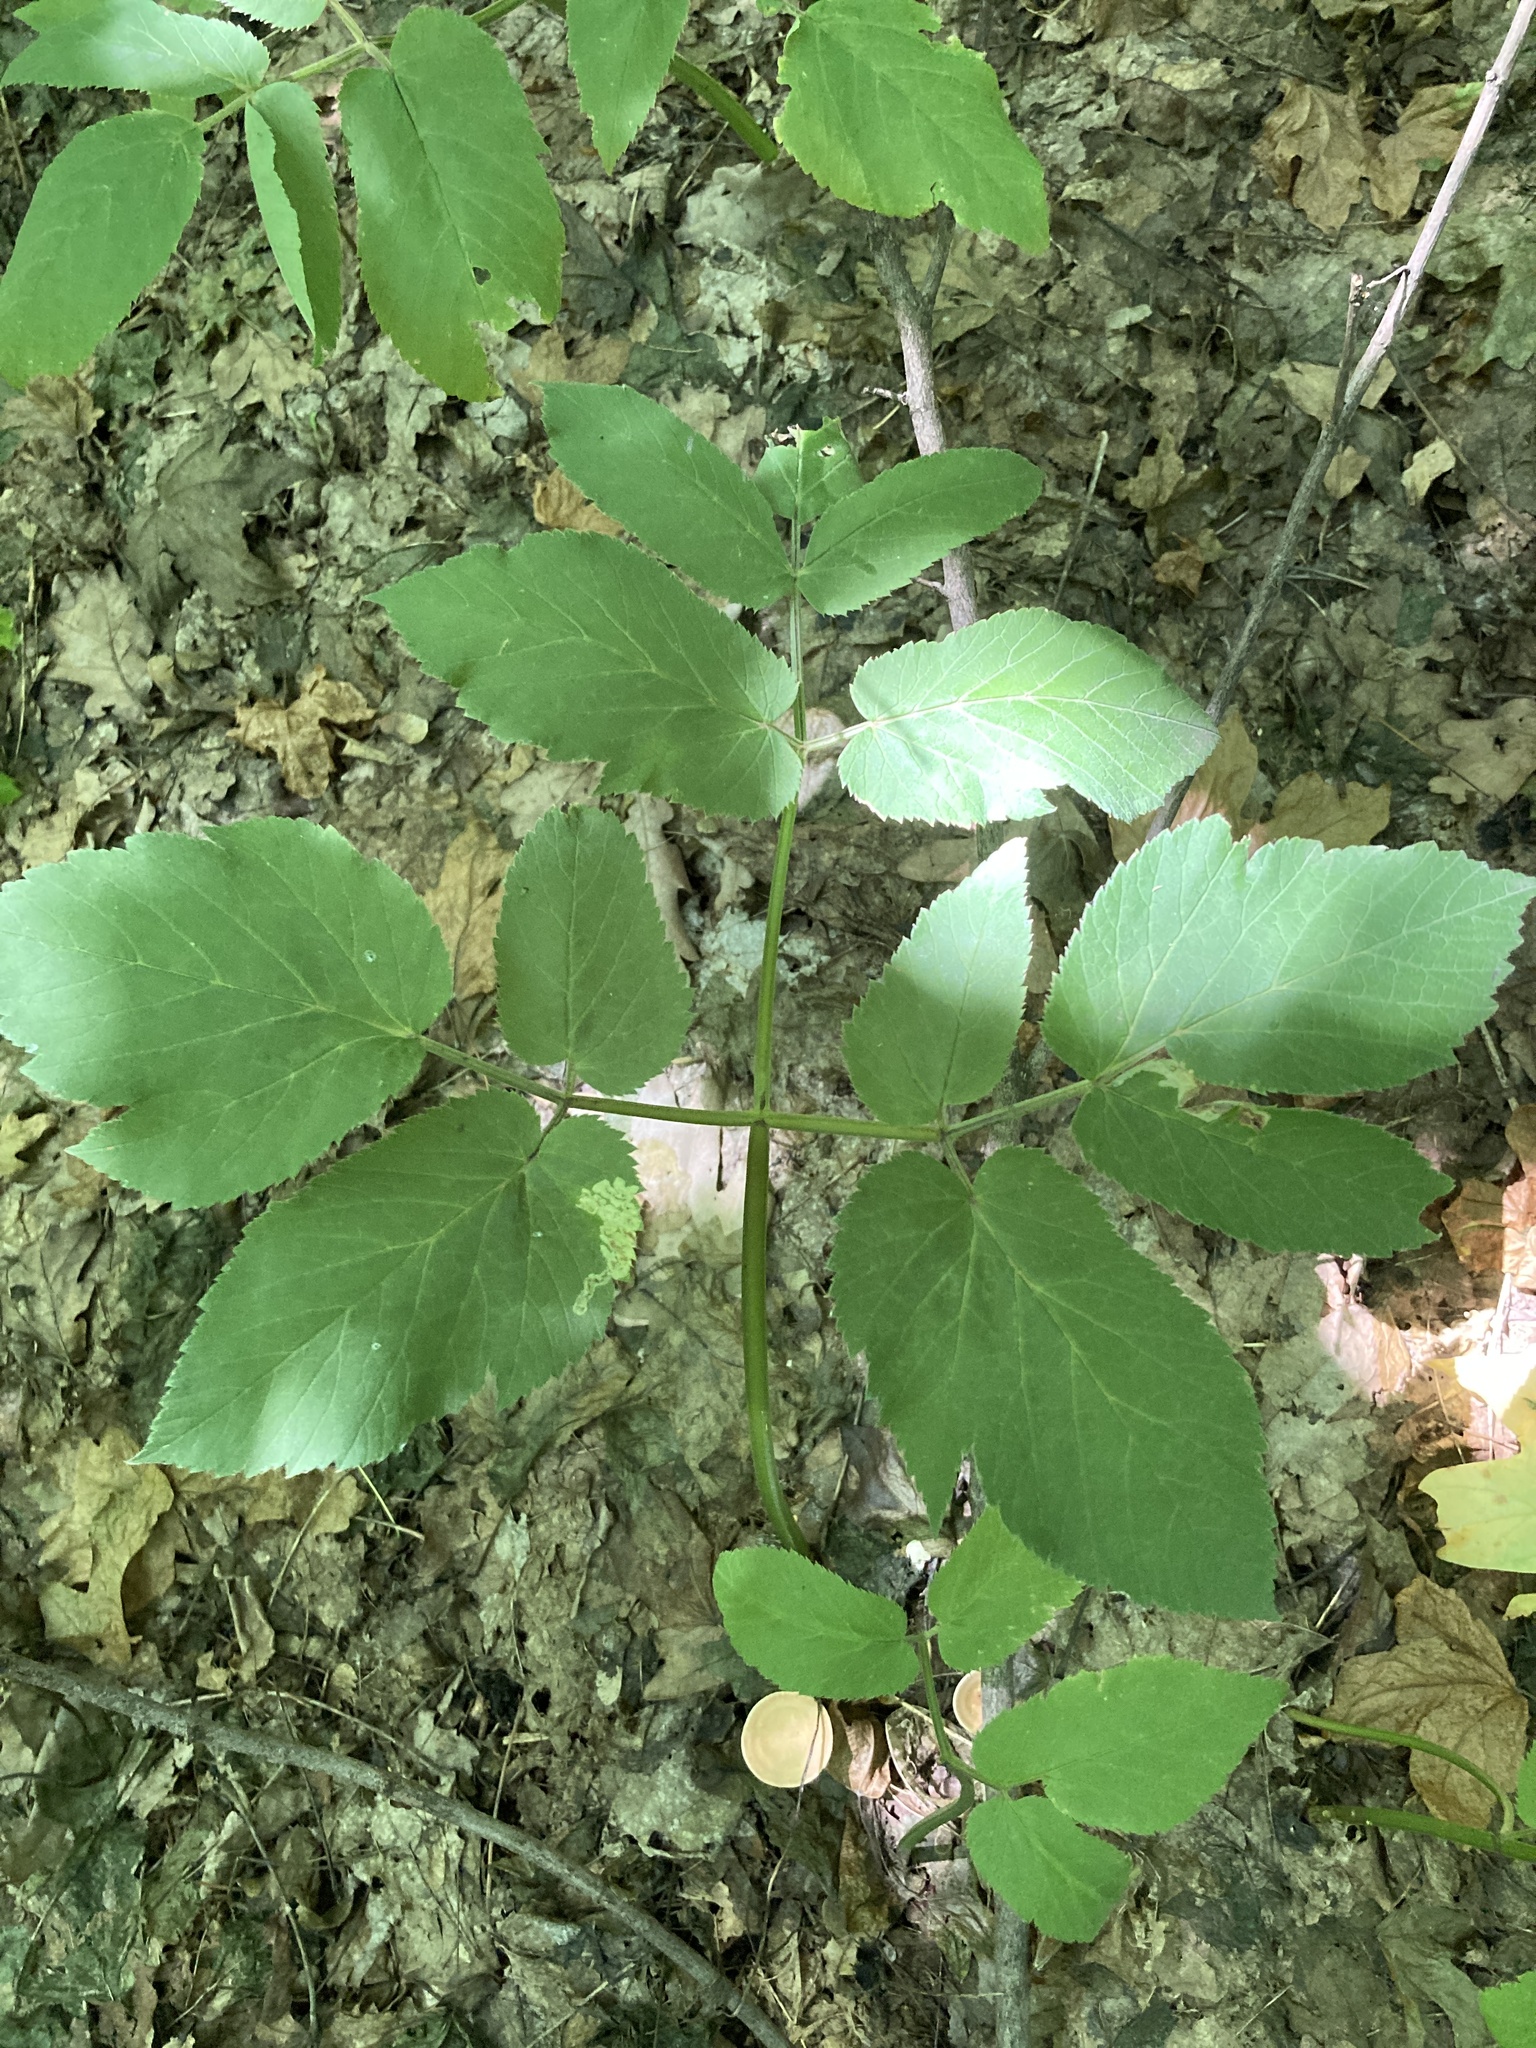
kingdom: Plantae
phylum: Tracheophyta
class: Magnoliopsida
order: Apiales
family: Apiaceae
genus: Aegopodium
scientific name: Aegopodium podagraria
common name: Ground-elder
